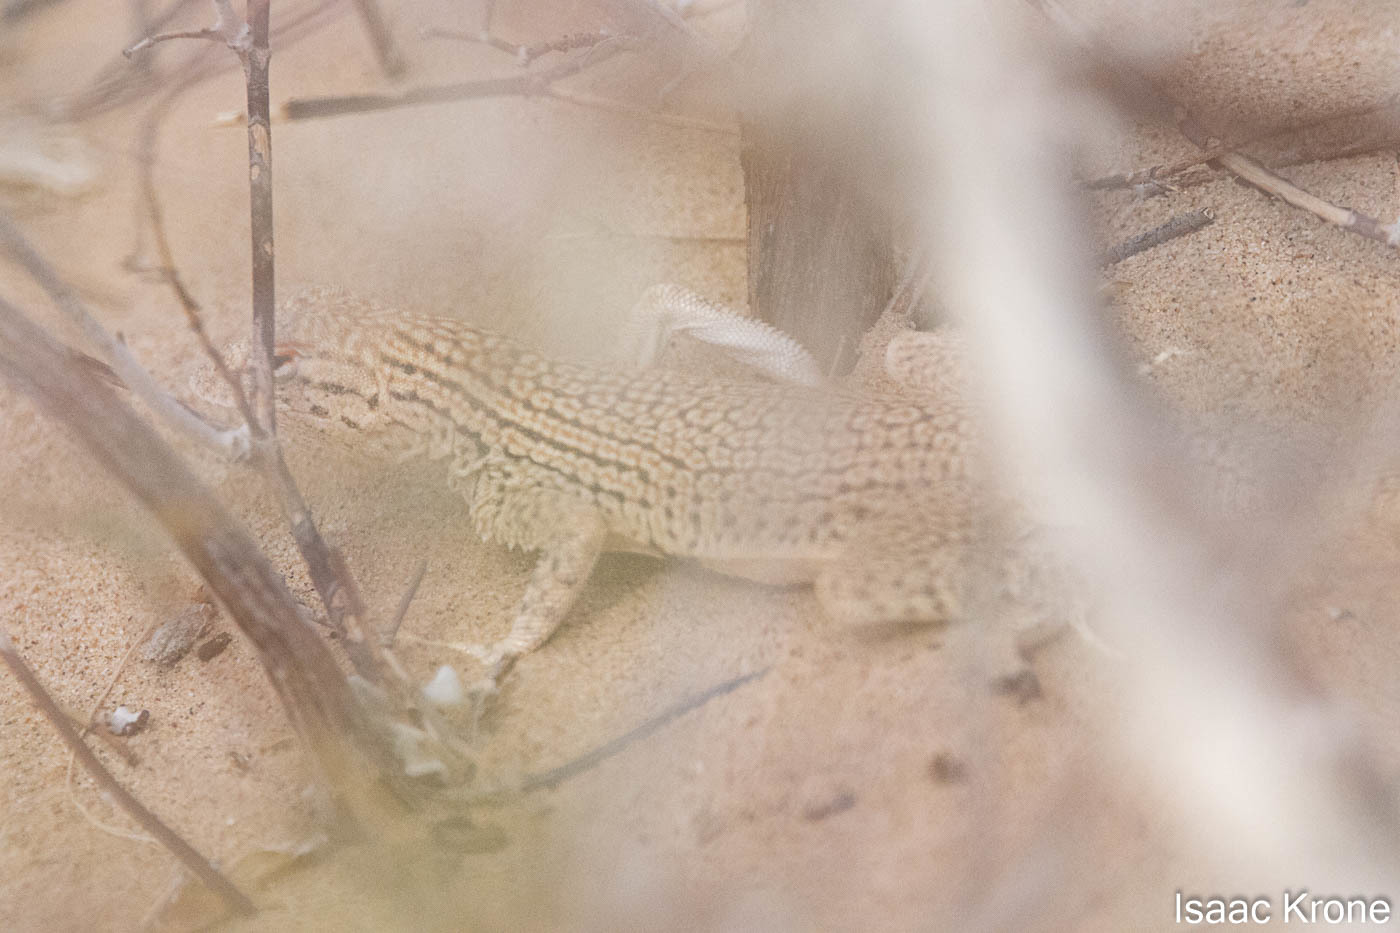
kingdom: Animalia
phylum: Chordata
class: Squamata
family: Phrynosomatidae
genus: Uma
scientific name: Uma notata
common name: Colorado desert fringe-toed lizard
